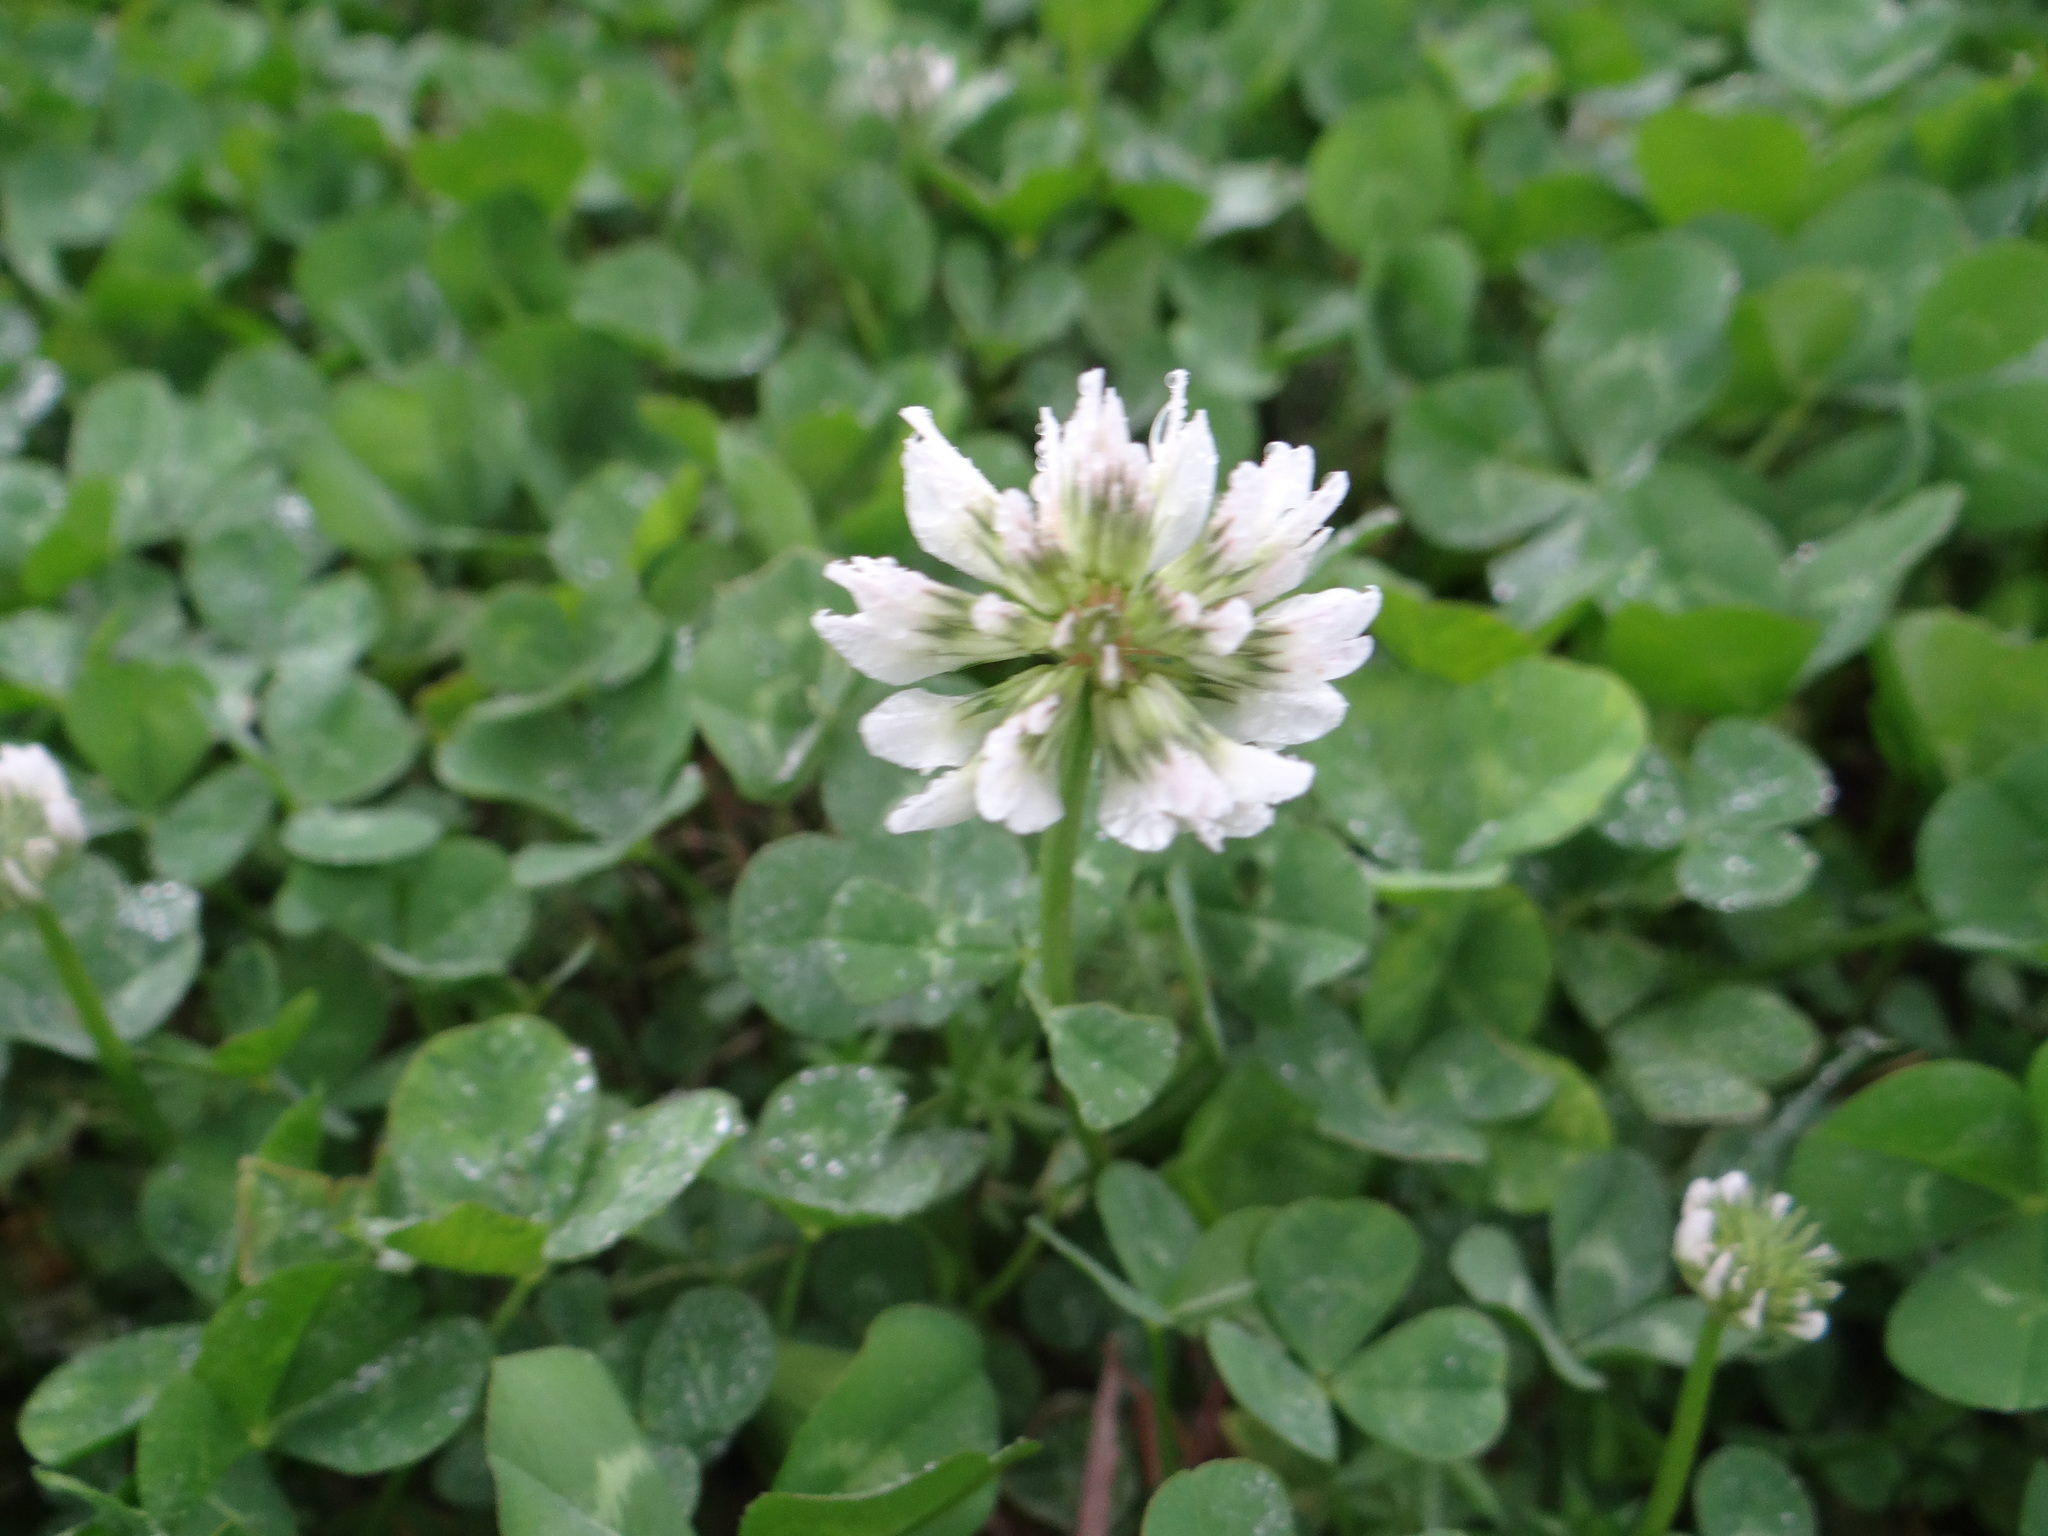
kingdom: Plantae
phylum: Tracheophyta
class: Magnoliopsida
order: Fabales
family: Fabaceae
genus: Trifolium
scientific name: Trifolium repens
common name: White clover
